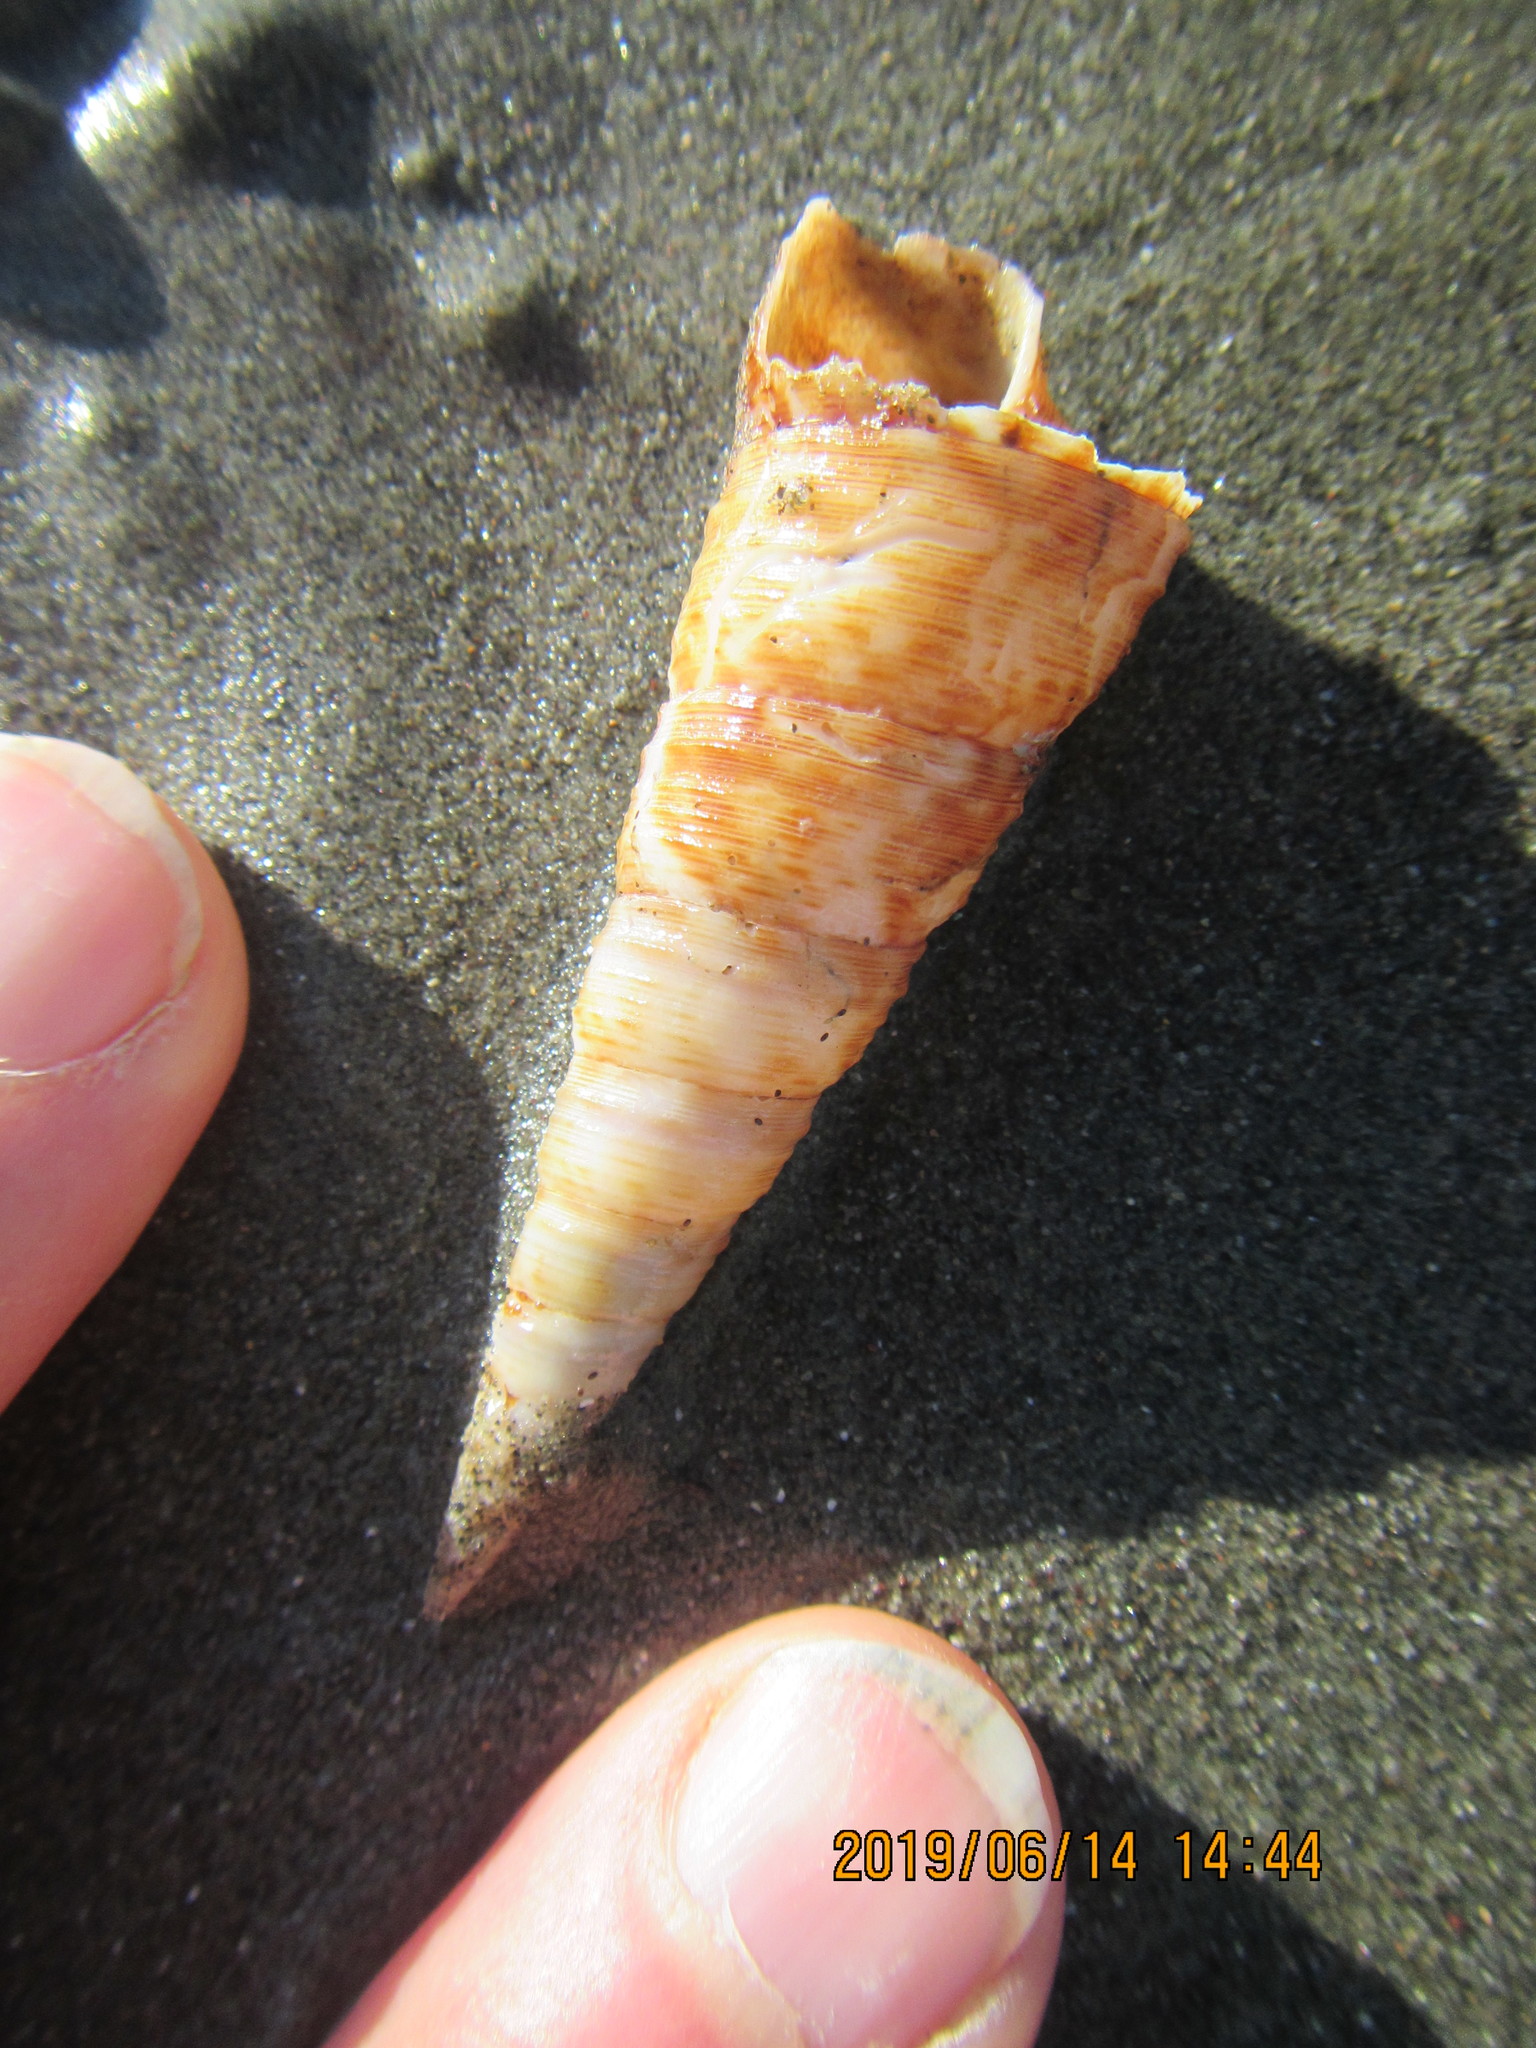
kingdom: Animalia
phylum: Mollusca
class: Gastropoda
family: Turritellidae
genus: Maoricolpus
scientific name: Maoricolpus roseus
